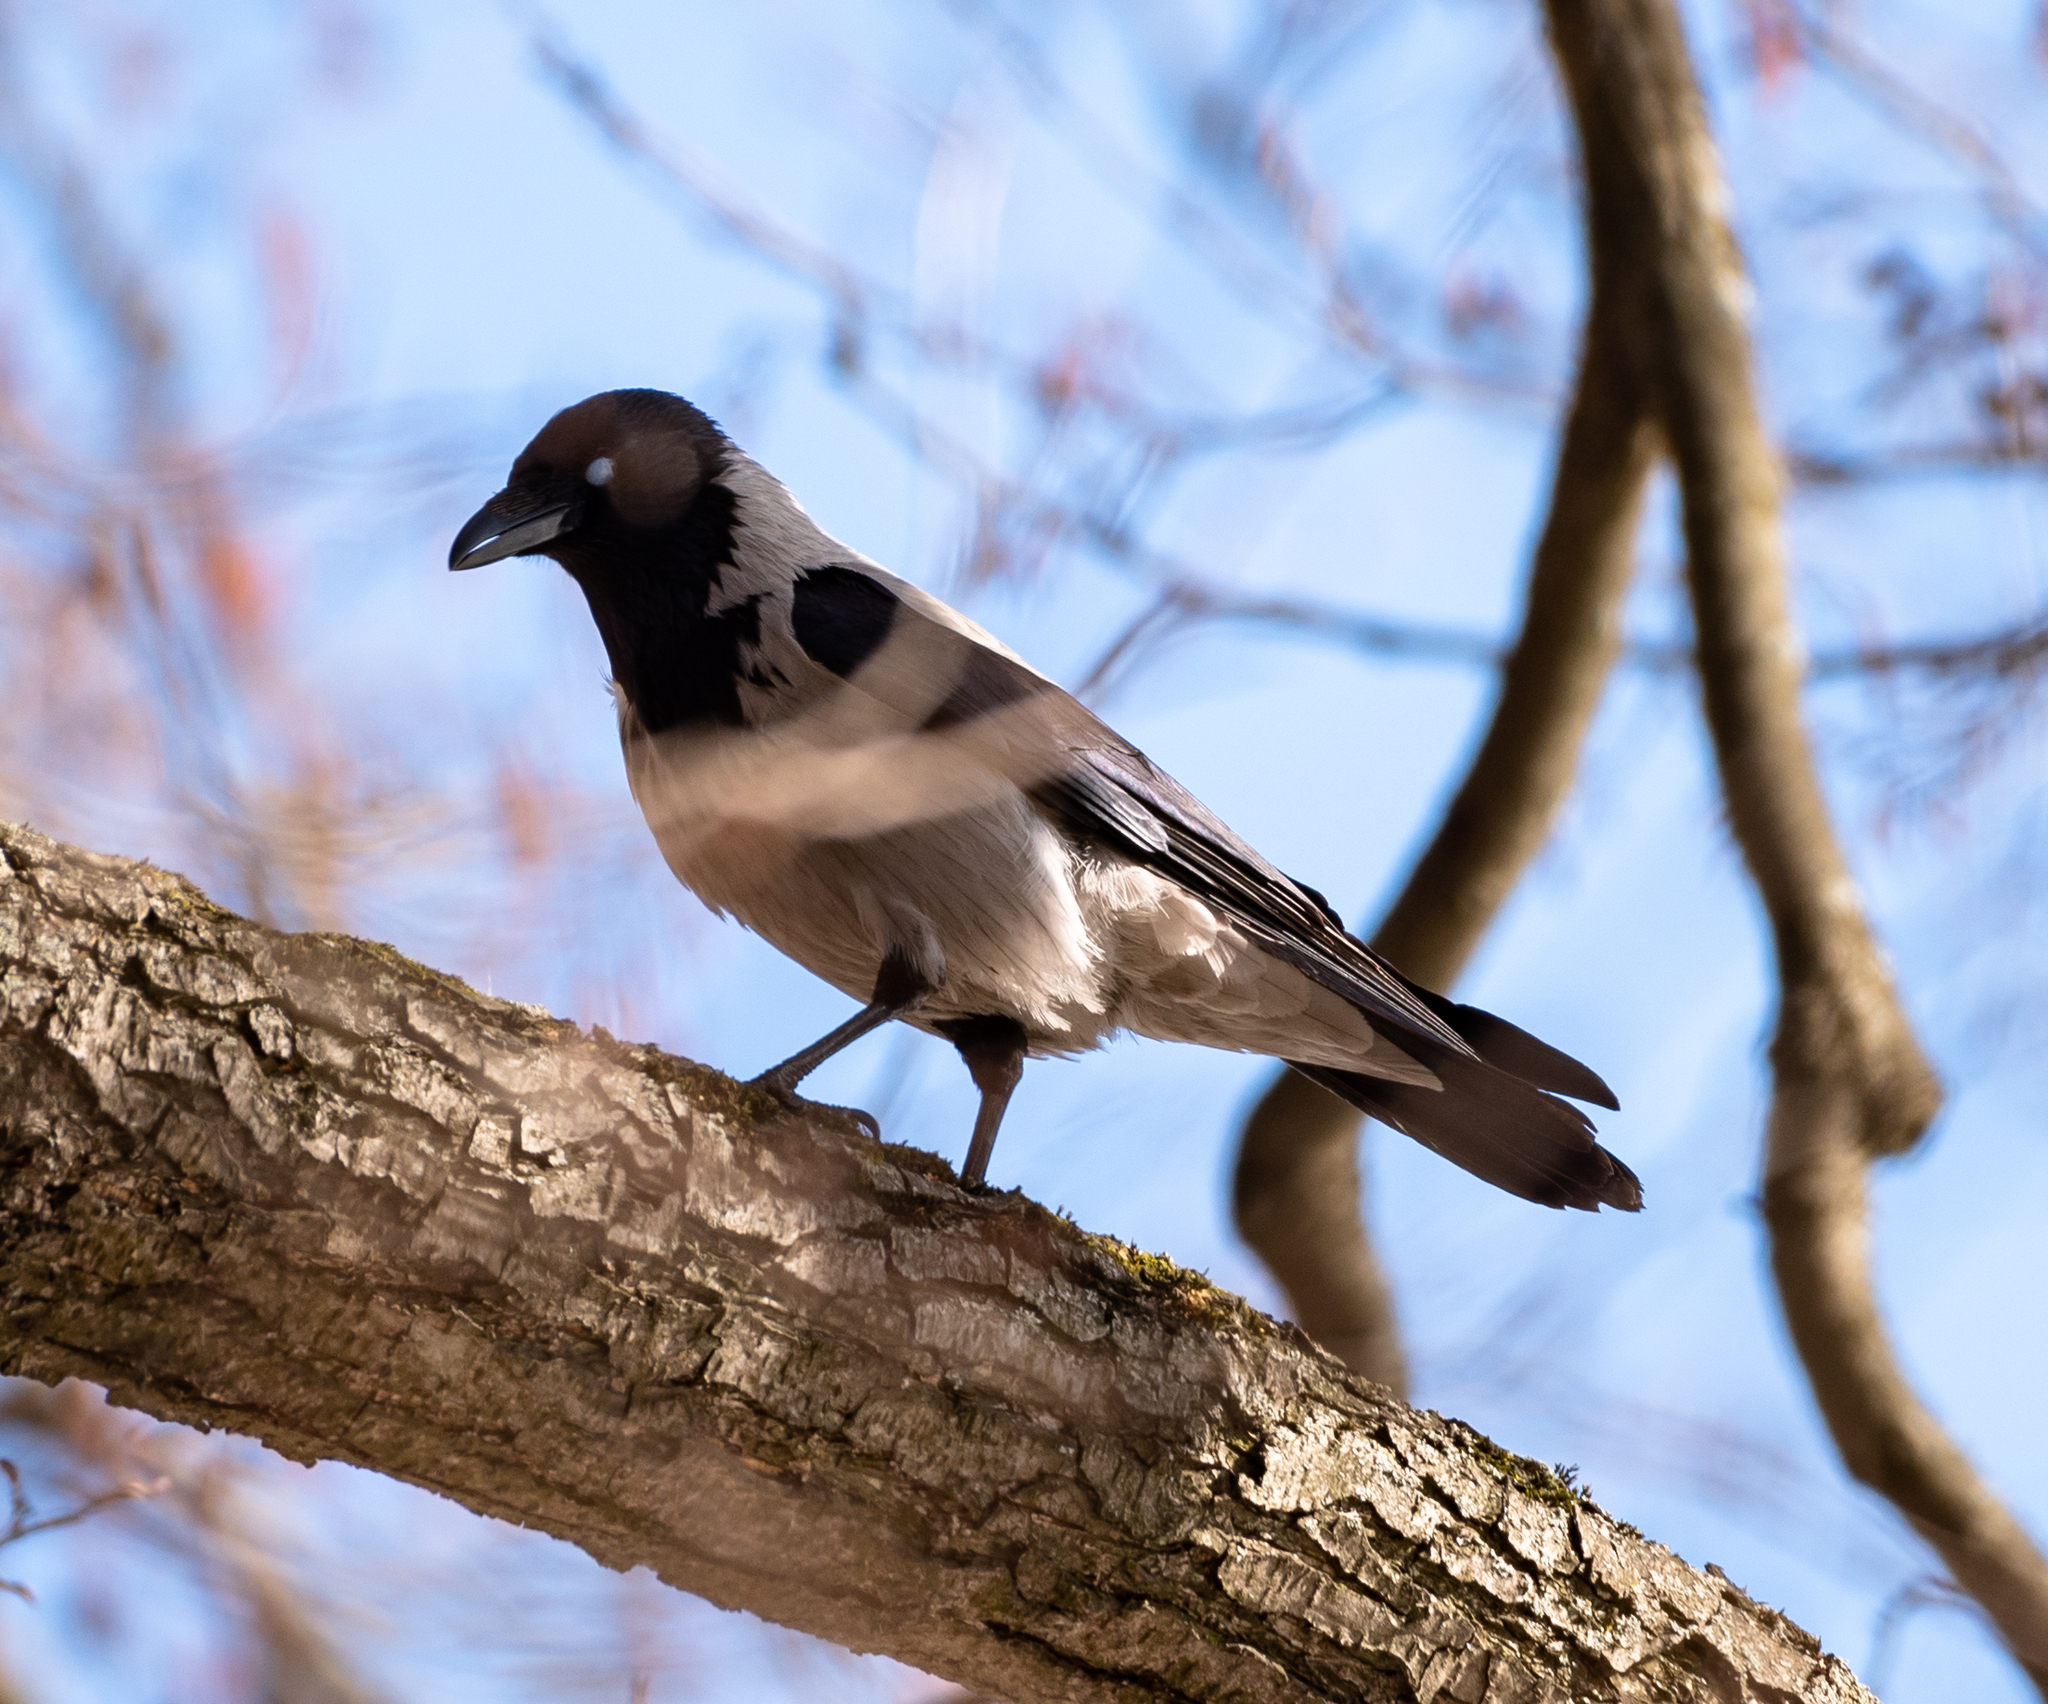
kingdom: Animalia
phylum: Chordata
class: Aves
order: Passeriformes
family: Corvidae
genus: Corvus
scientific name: Corvus cornix
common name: Hooded crow
